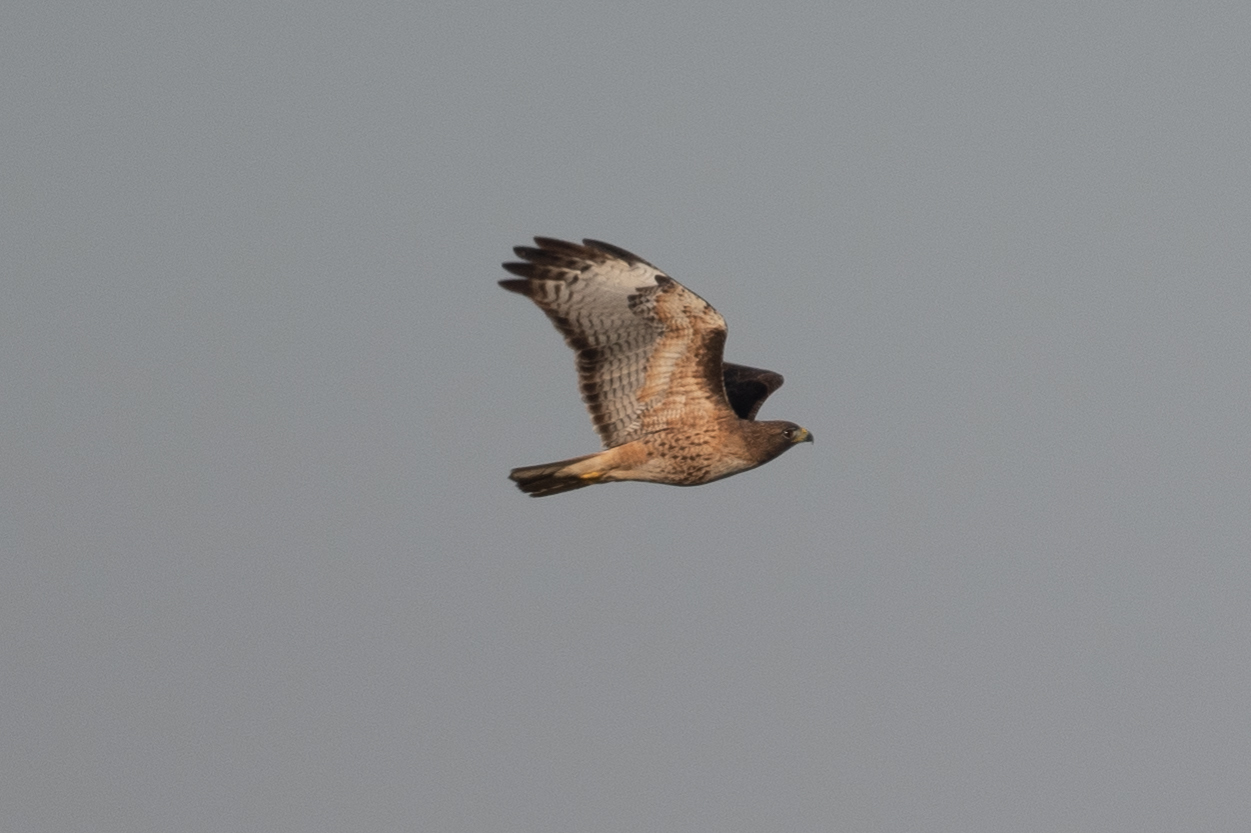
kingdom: Animalia
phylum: Chordata
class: Aves
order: Accipitriformes
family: Accipitridae
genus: Buteo
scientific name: Buteo jamaicensis
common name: Red-tailed hawk
